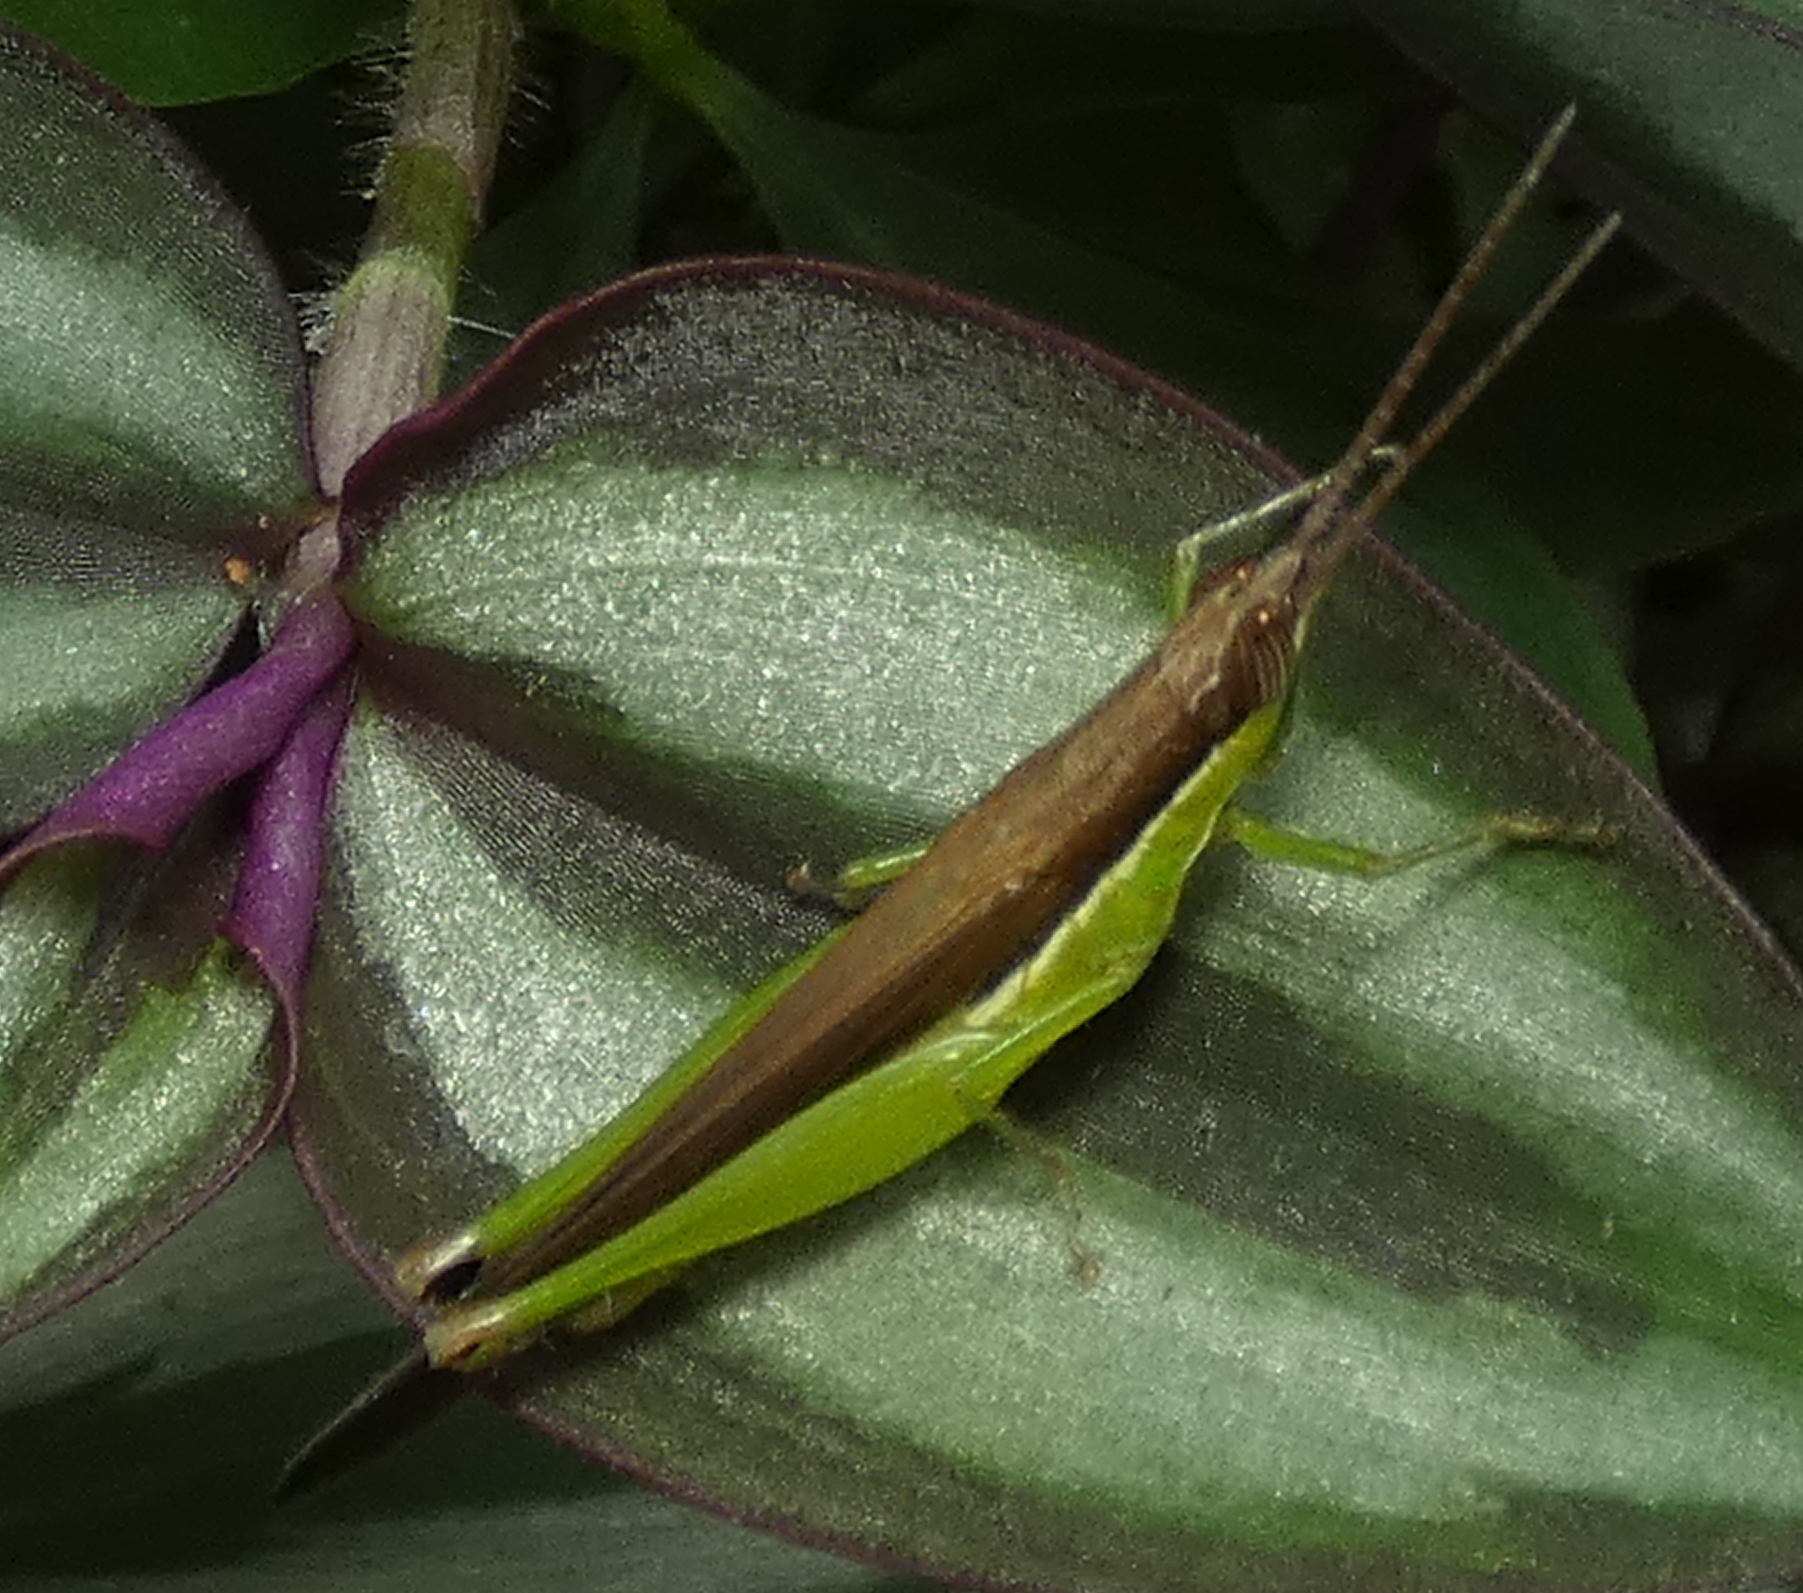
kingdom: Animalia
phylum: Arthropoda
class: Insecta
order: Orthoptera
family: Acrididae
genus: Stenopola
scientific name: Stenopola dorsalis
